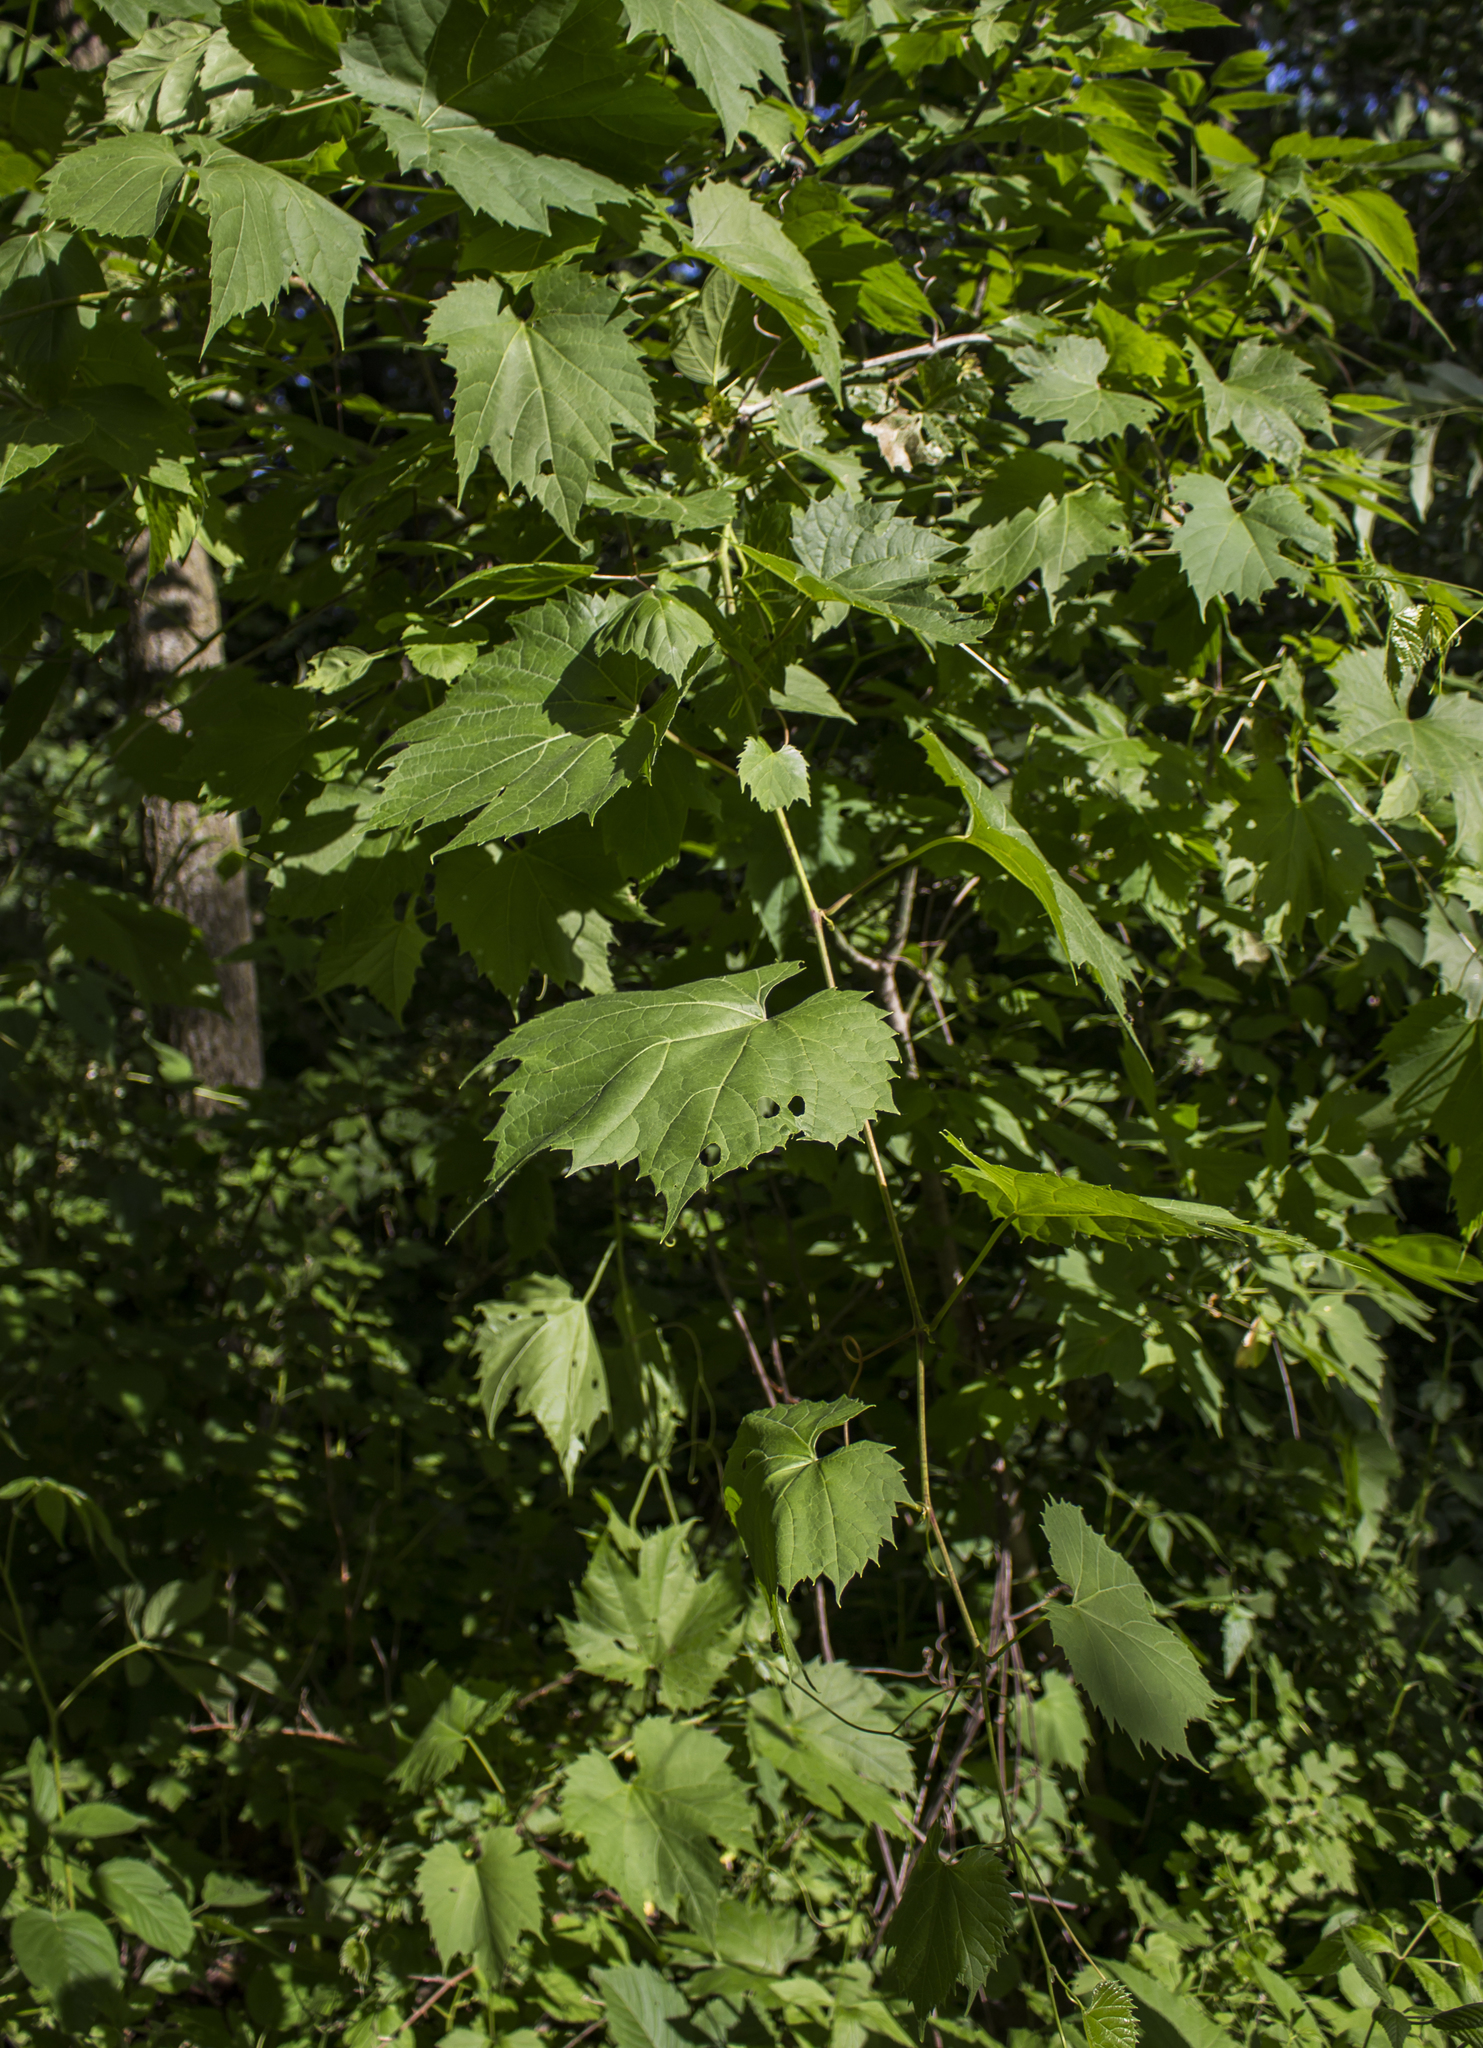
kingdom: Plantae
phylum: Tracheophyta
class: Magnoliopsida
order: Vitales
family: Vitaceae
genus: Vitis
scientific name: Vitis riparia
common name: Frost grape
